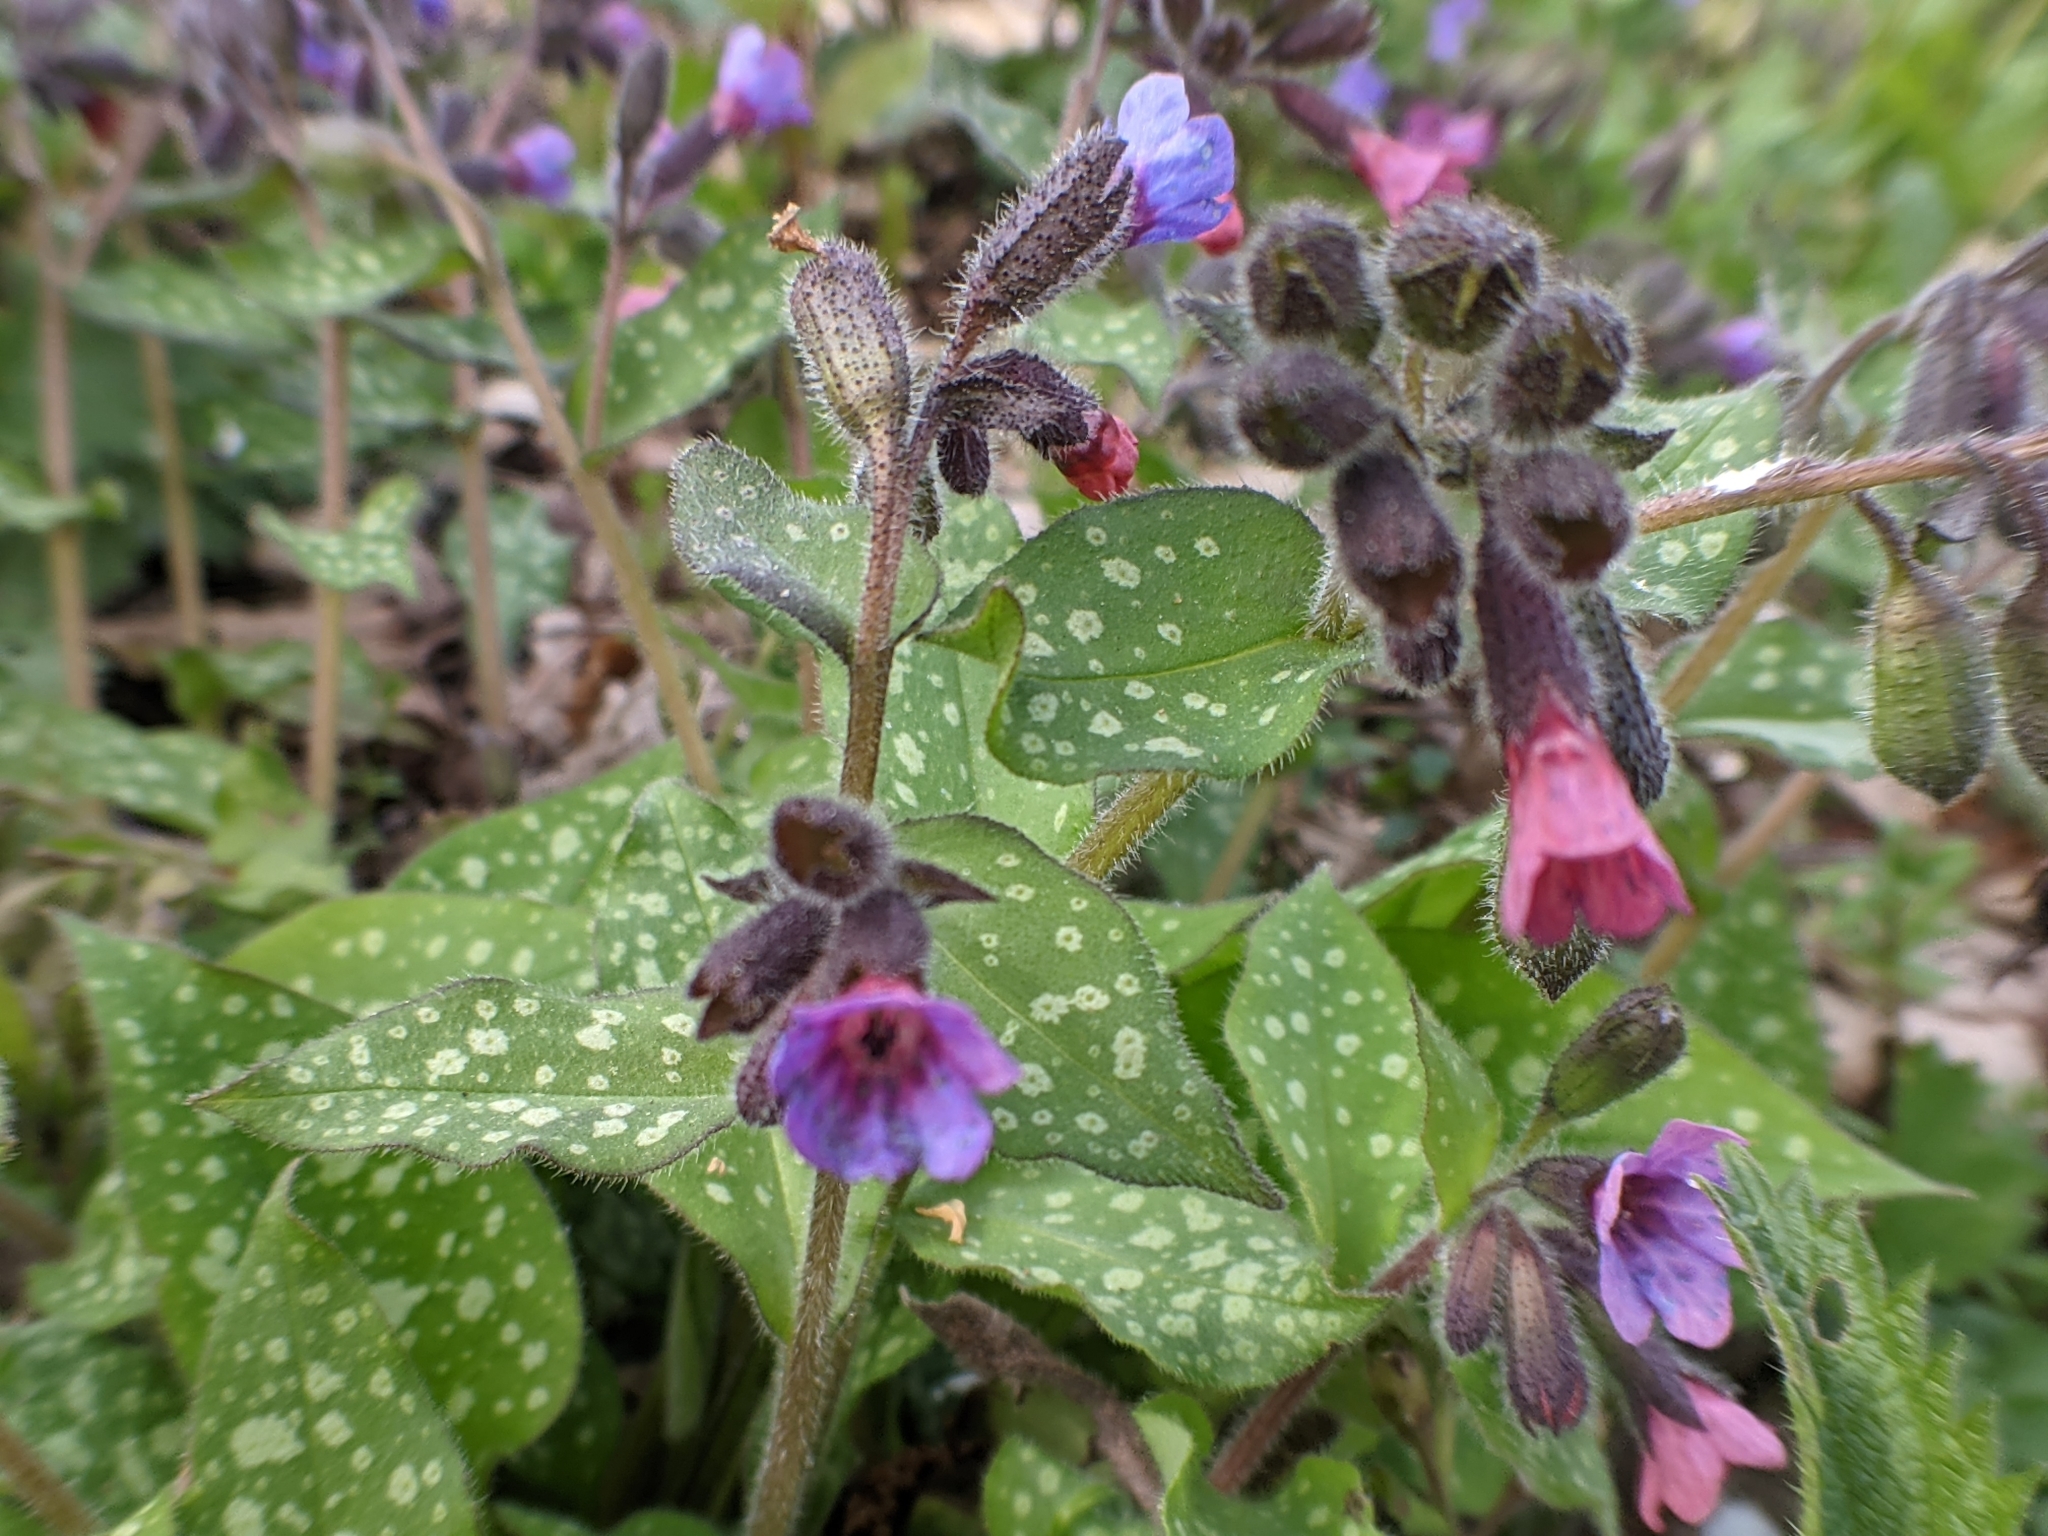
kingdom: Plantae
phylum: Tracheophyta
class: Magnoliopsida
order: Boraginales
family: Boraginaceae
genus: Pulmonaria
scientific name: Pulmonaria officinalis
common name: Lungwort
